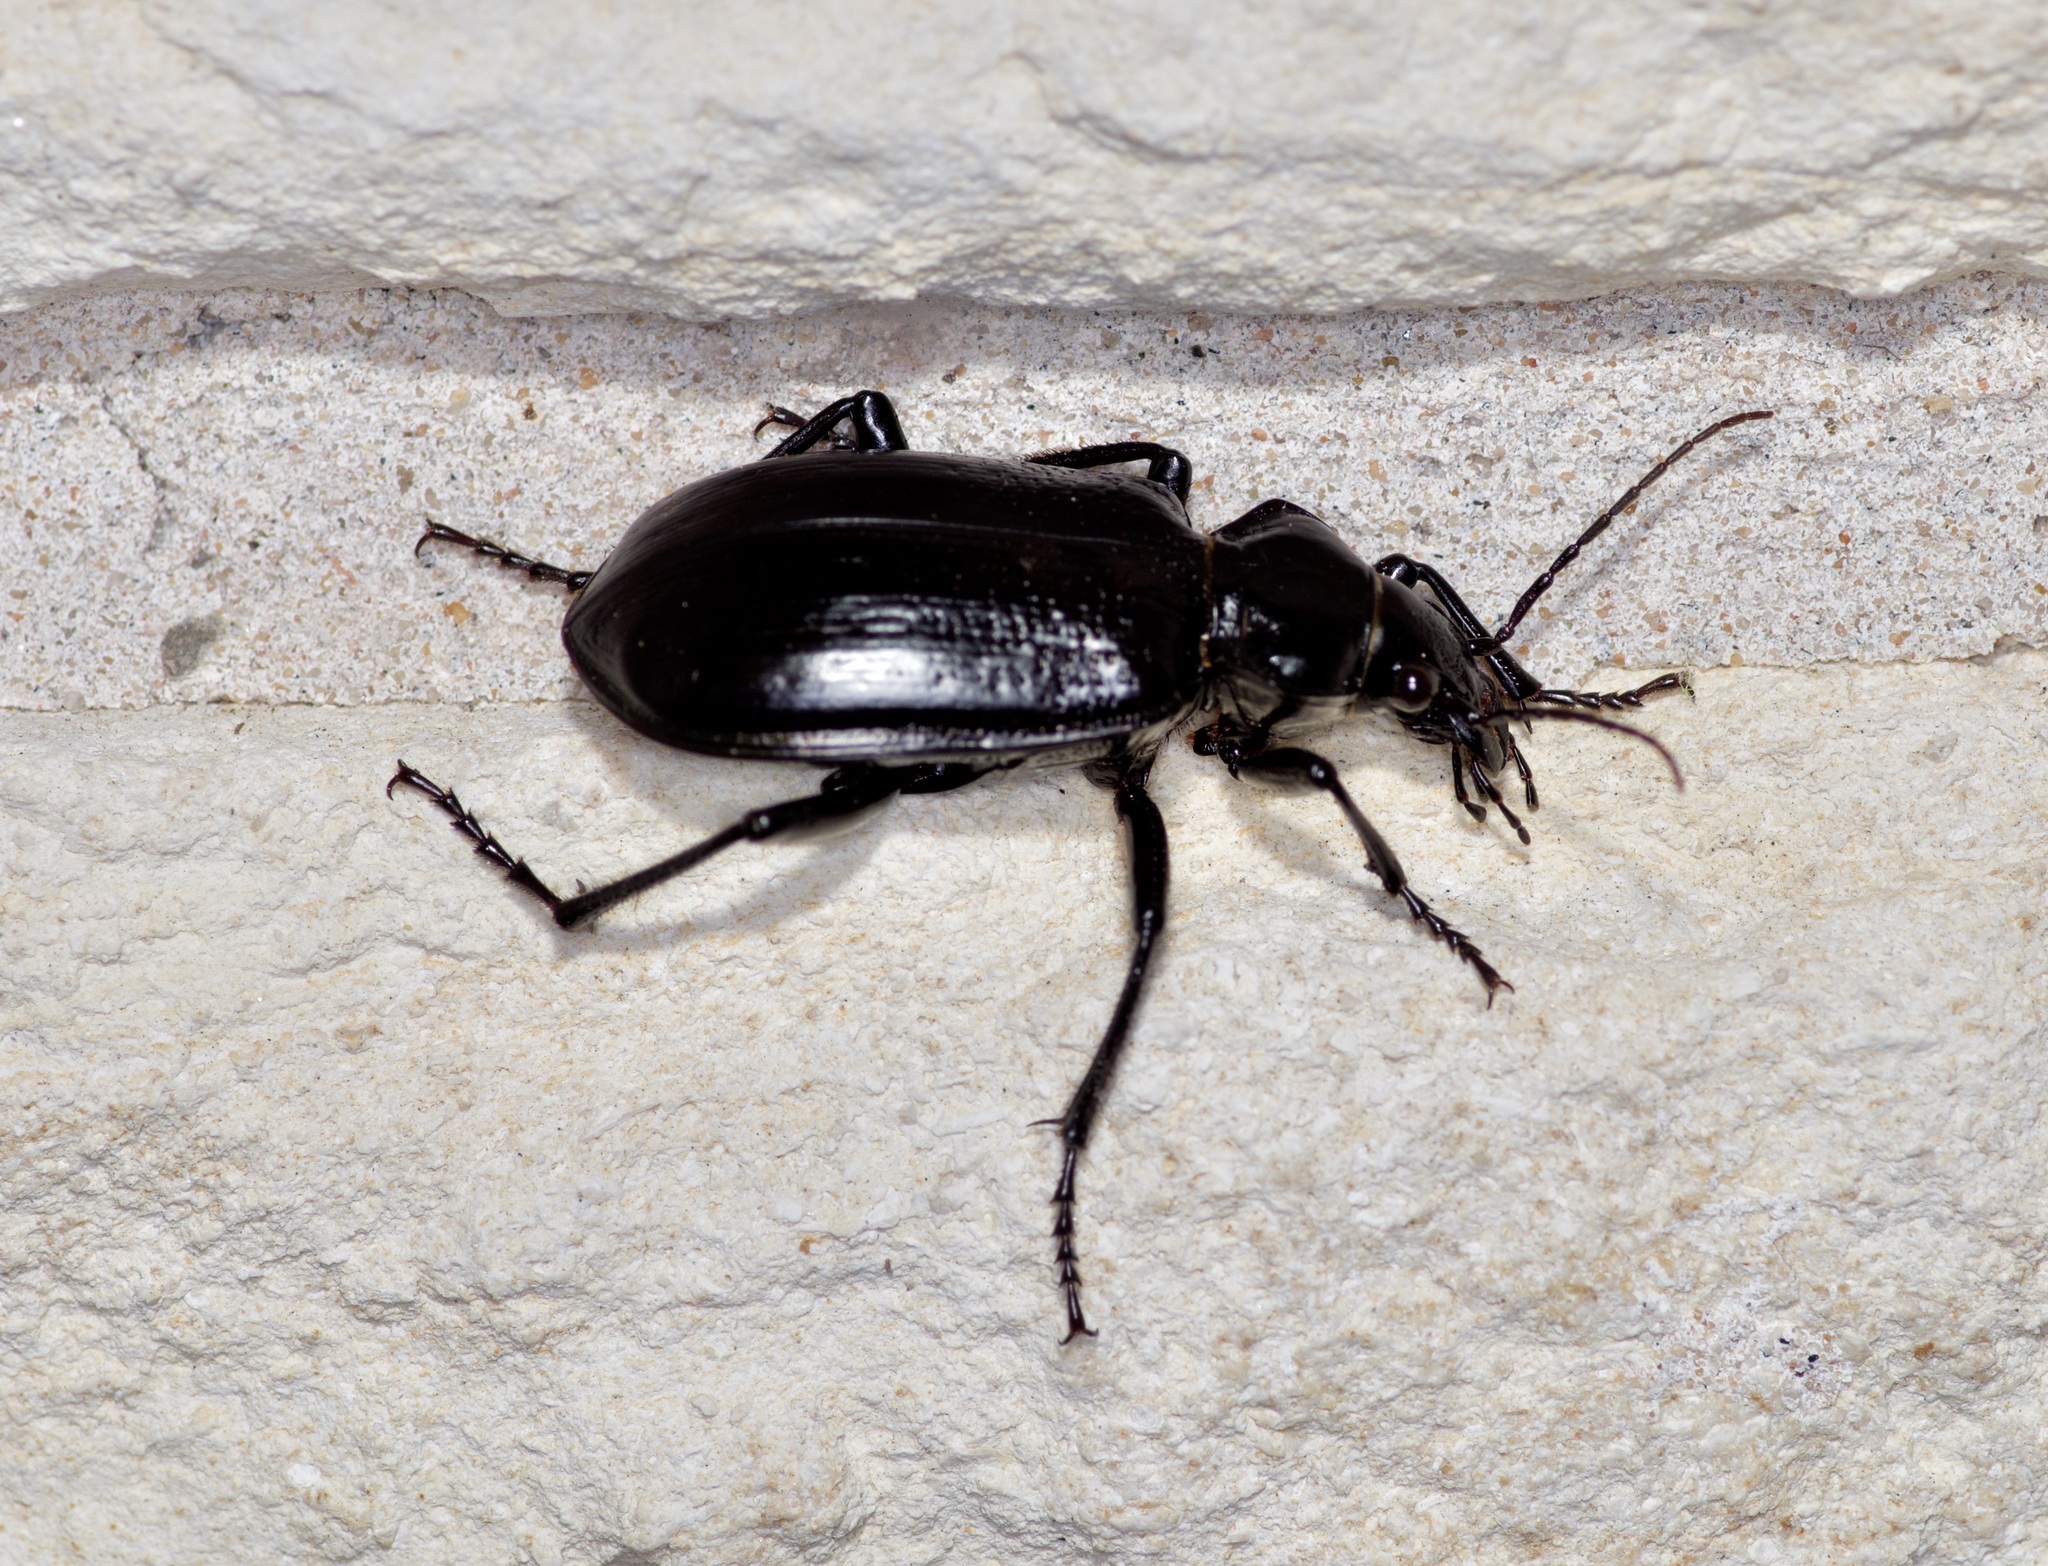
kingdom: Animalia
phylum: Arthropoda
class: Insecta
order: Coleoptera
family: Carabidae
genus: Calosoma
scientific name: Calosoma marginale
